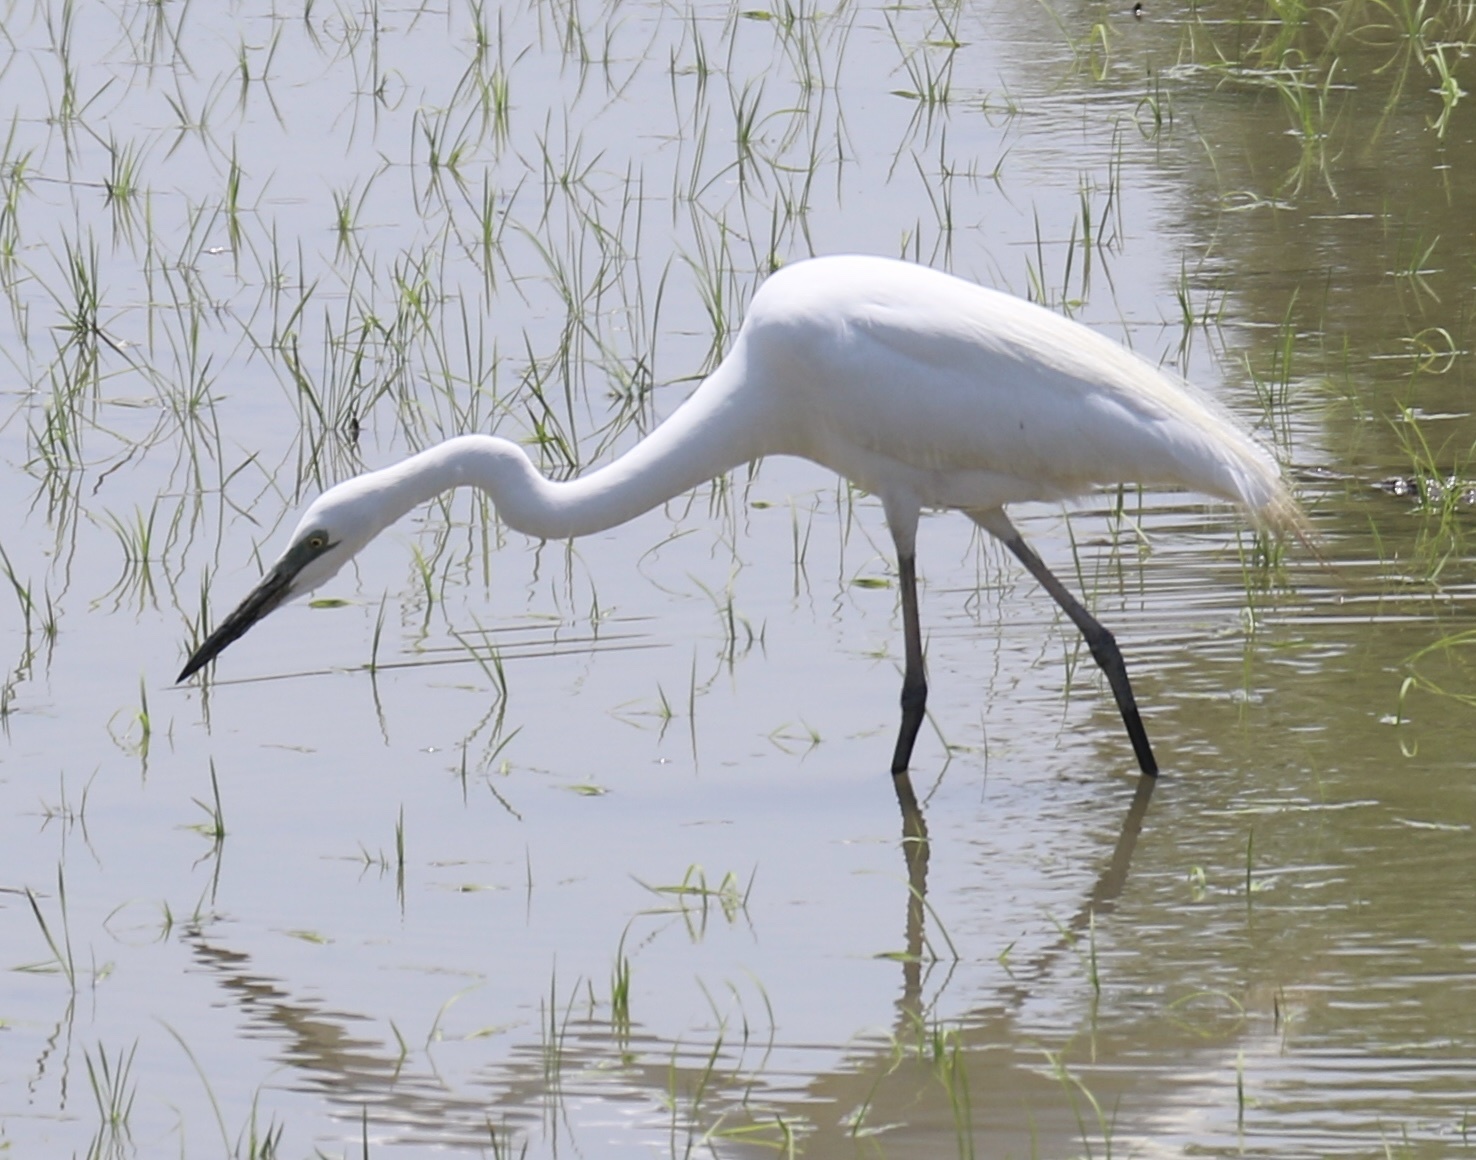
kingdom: Animalia
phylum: Chordata
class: Aves
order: Pelecaniformes
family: Ardeidae
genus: Ardea
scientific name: Ardea alba
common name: Great egret
